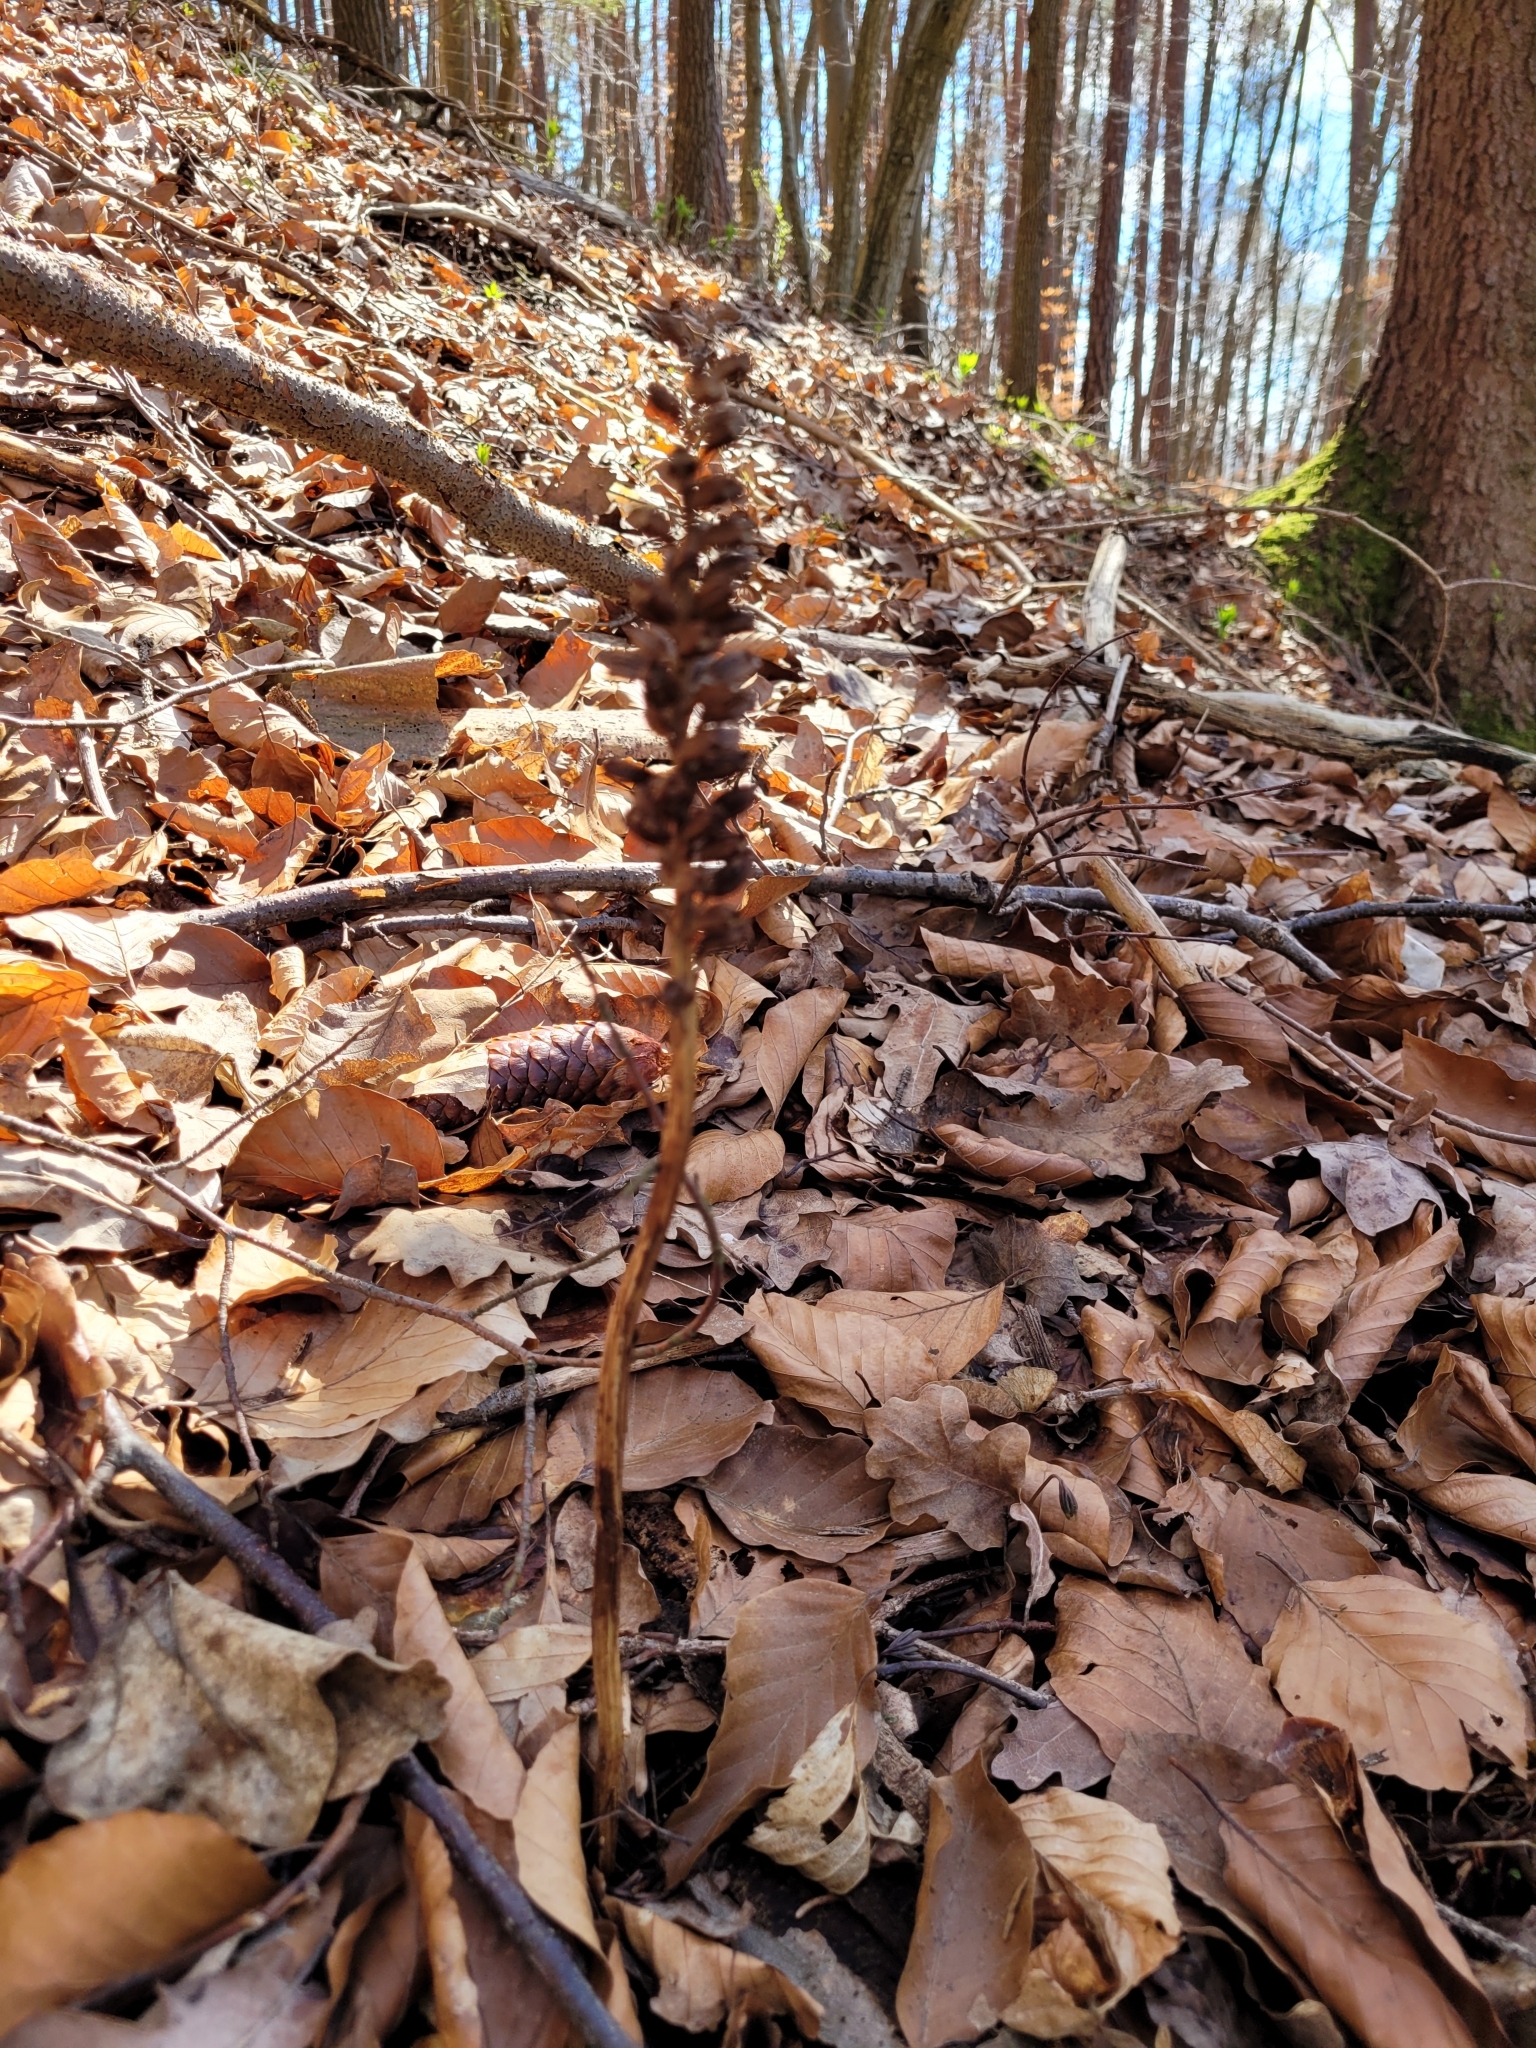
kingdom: Plantae
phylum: Tracheophyta
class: Liliopsida
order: Asparagales
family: Orchidaceae
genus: Neottia
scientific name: Neottia nidus-avis
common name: Bird's-nest orchid
